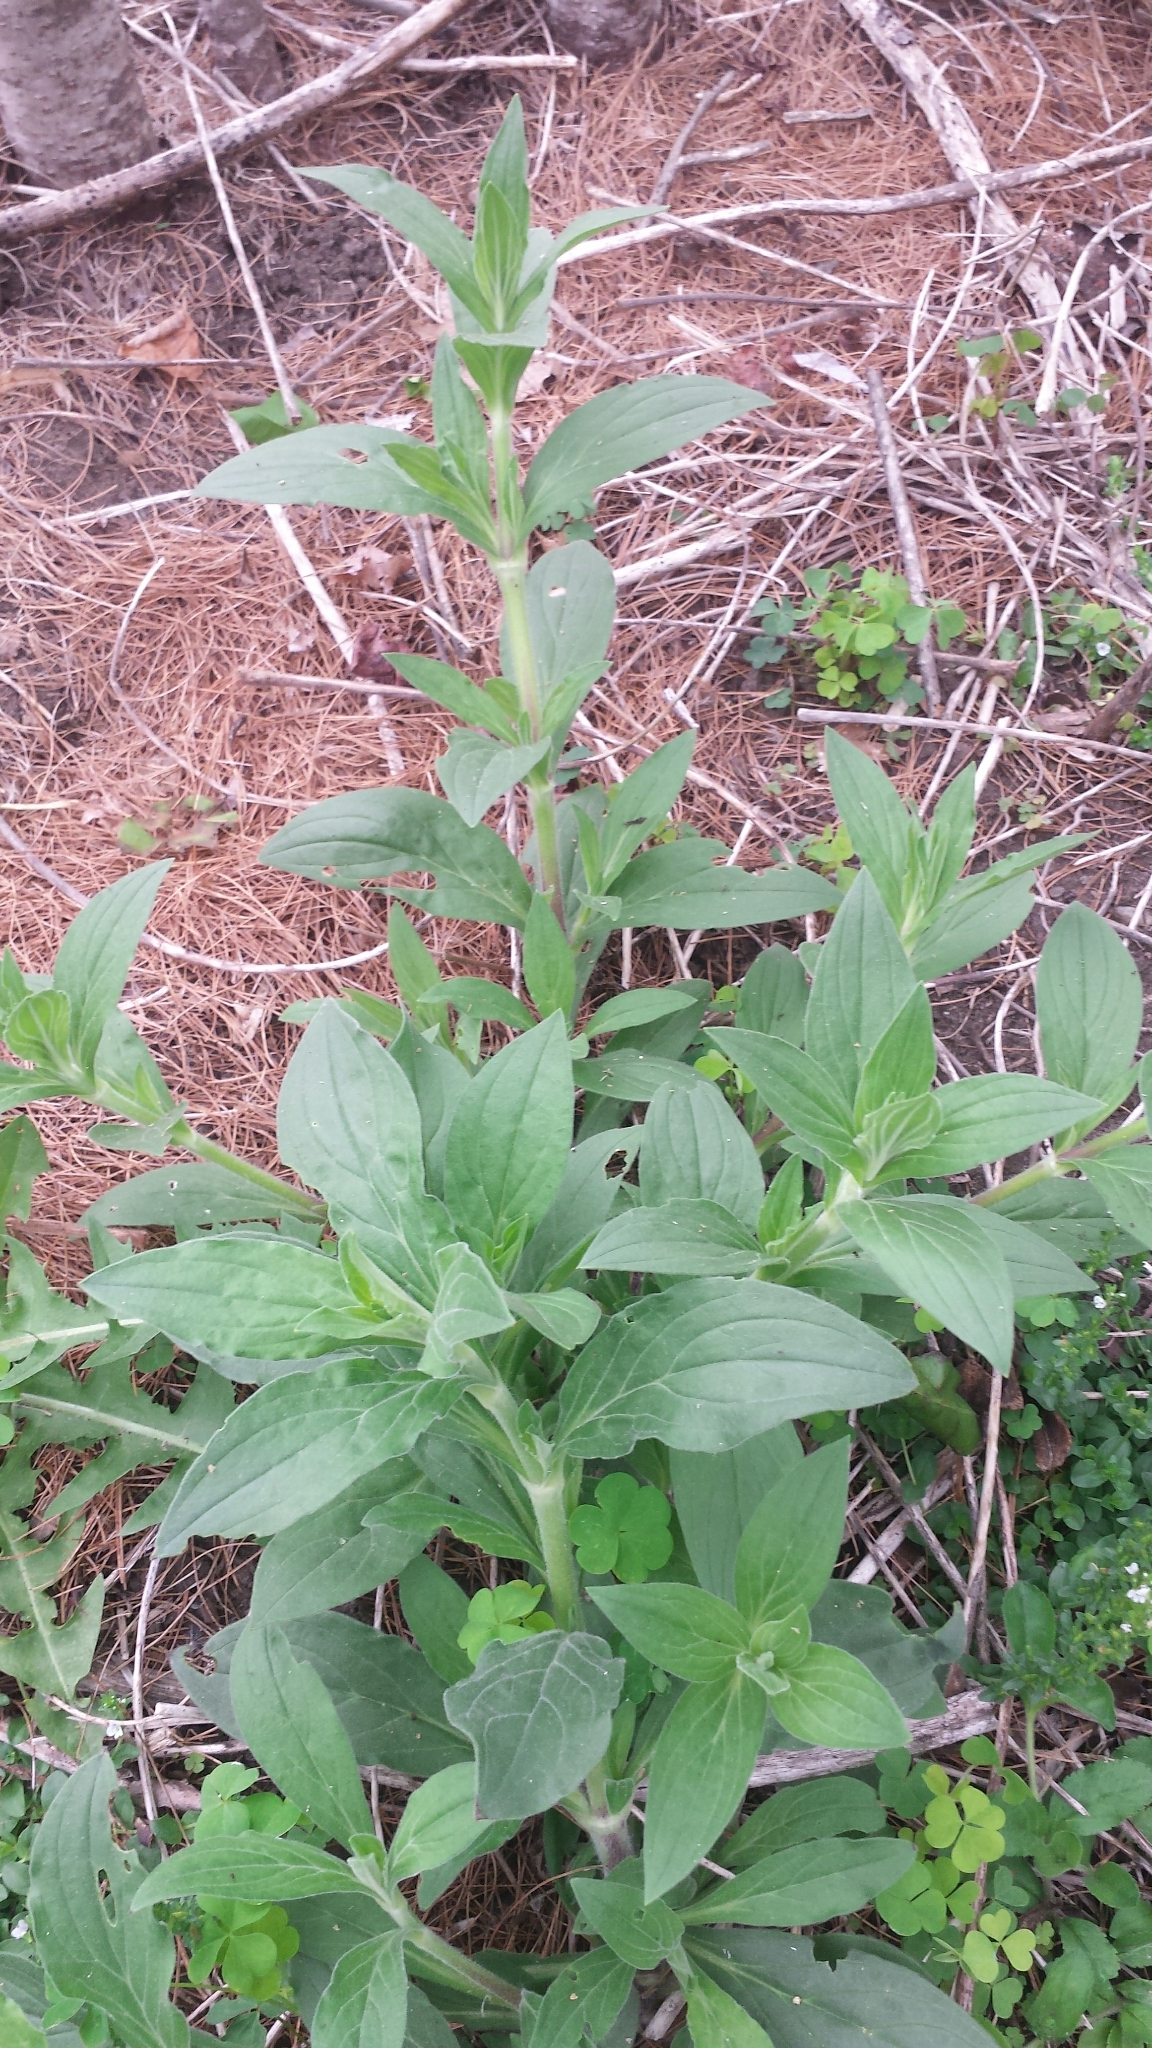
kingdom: Plantae
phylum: Tracheophyta
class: Magnoliopsida
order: Caryophyllales
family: Caryophyllaceae
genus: Silene
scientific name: Silene latifolia
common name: White campion
